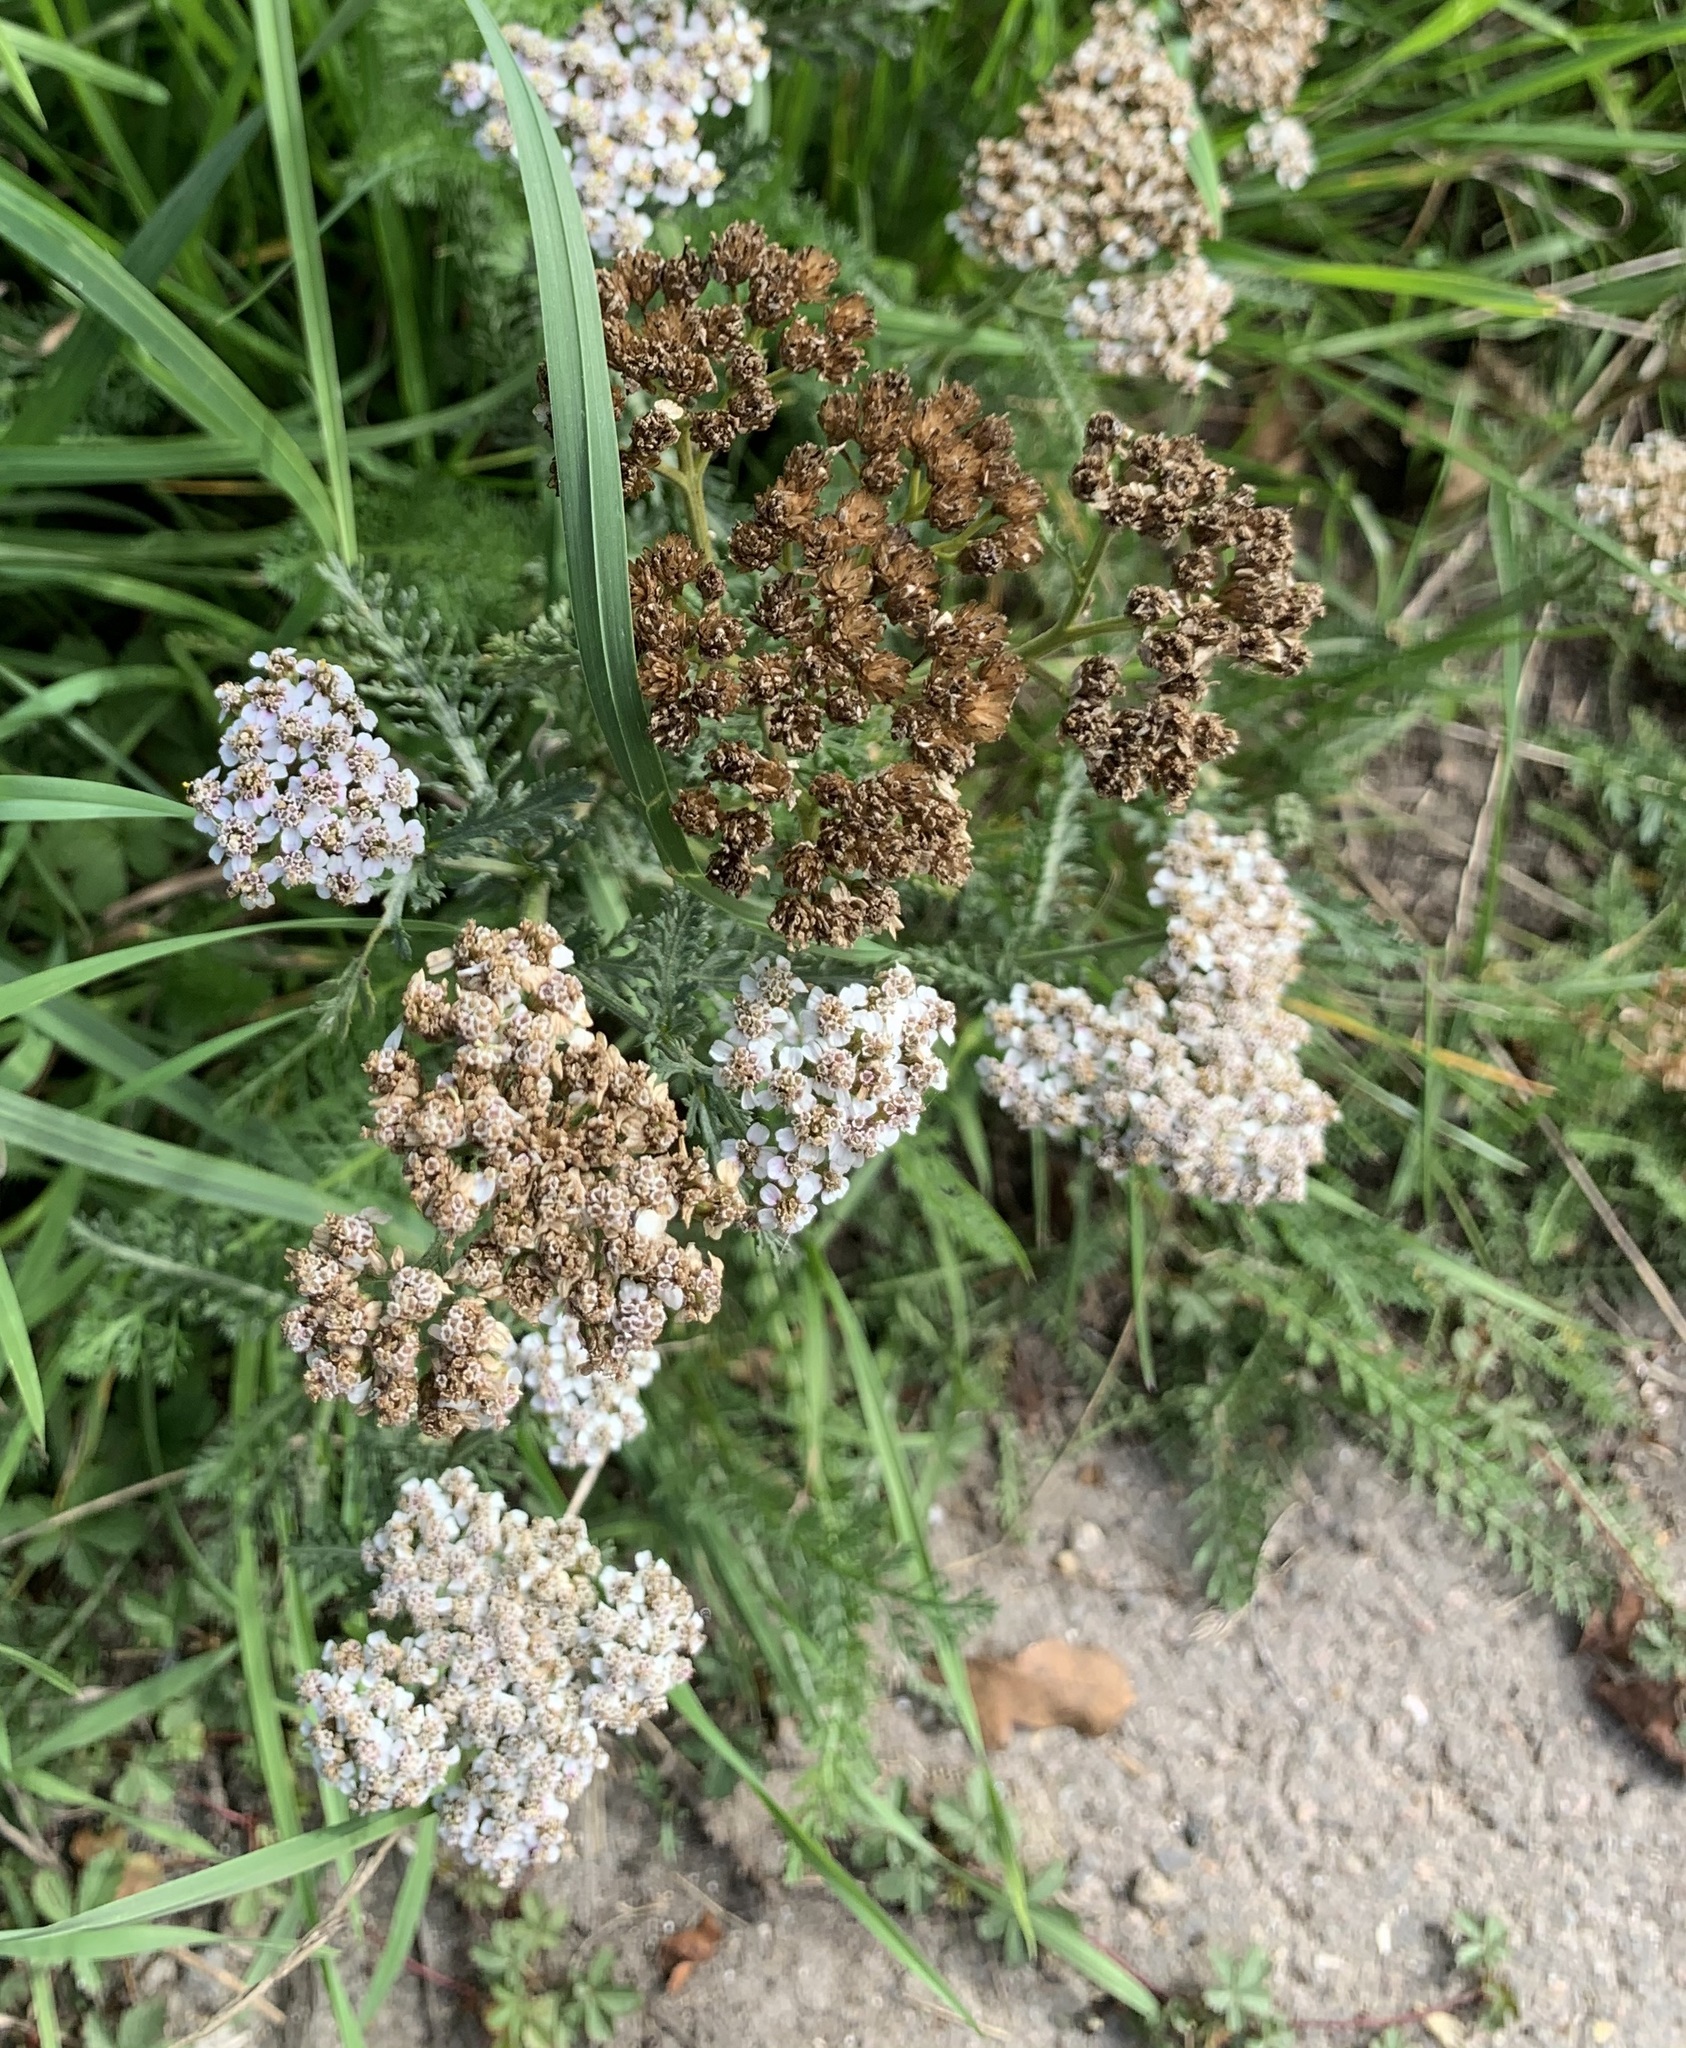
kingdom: Plantae
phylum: Tracheophyta
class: Magnoliopsida
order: Asterales
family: Asteraceae
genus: Achillea
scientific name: Achillea millefolium
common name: Yarrow
